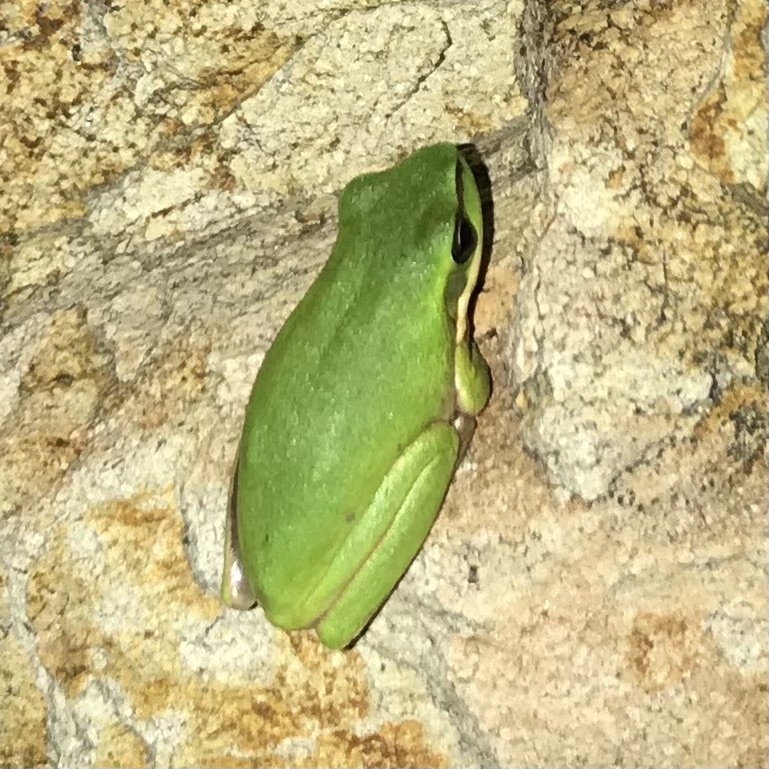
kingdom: Animalia
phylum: Chordata
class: Amphibia
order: Anura
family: Pelodryadidae
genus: Litoria
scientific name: Litoria fallax
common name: Eastern dwarf treefrog
